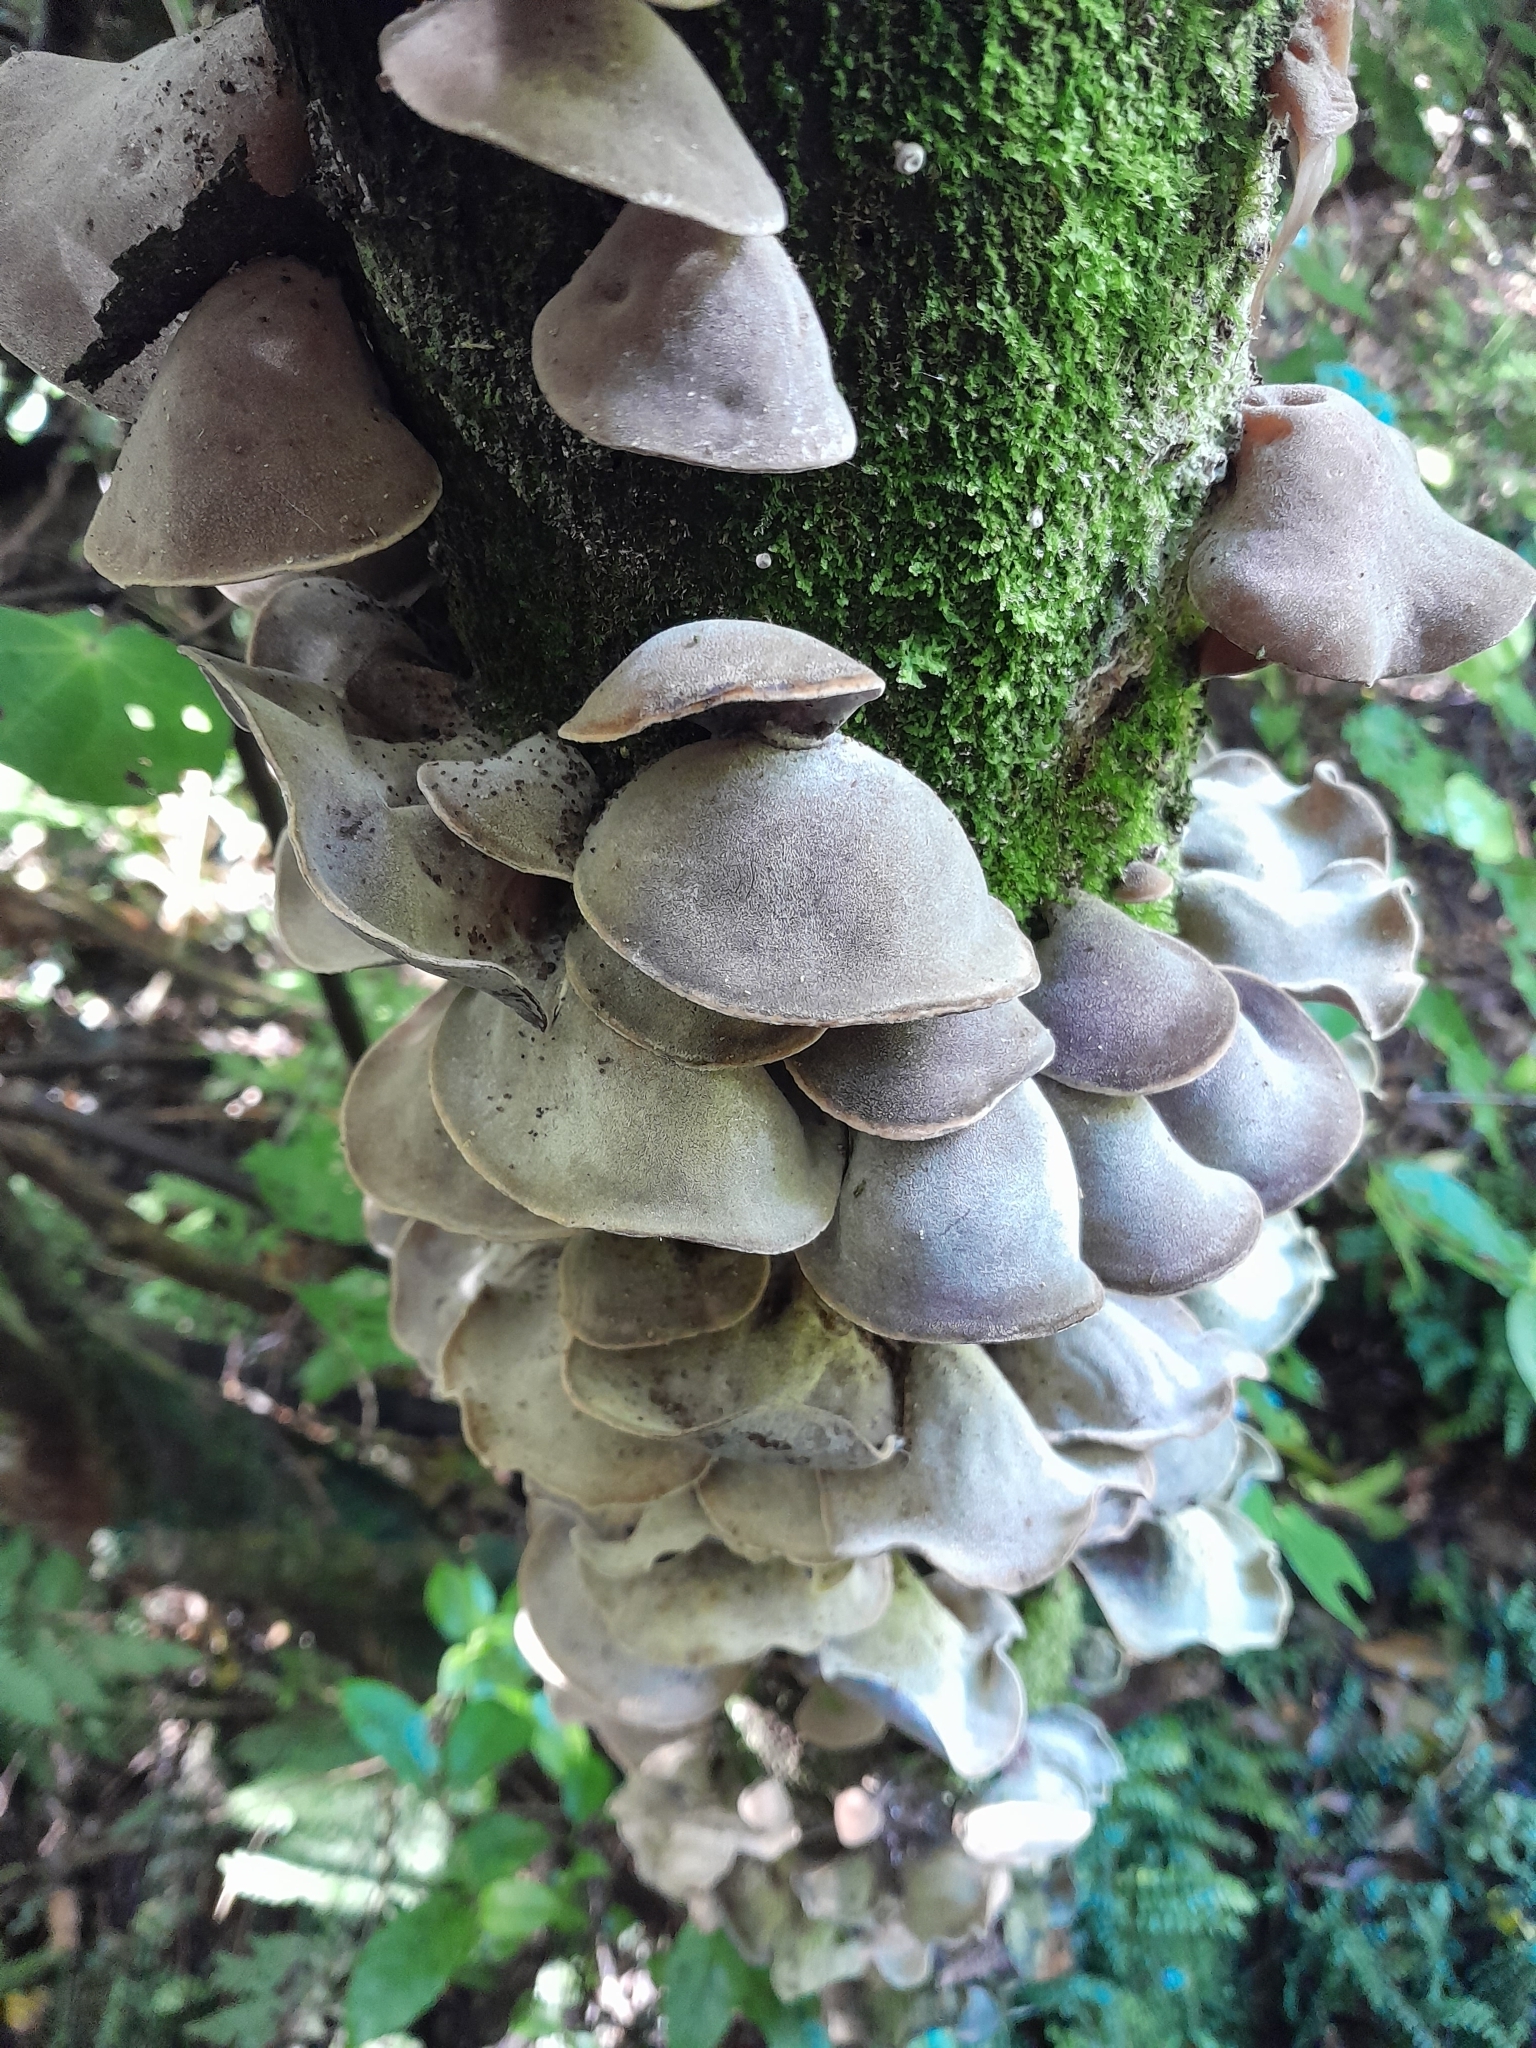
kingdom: Fungi
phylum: Basidiomycota
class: Agaricomycetes
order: Auriculariales
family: Auriculariaceae
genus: Auricularia
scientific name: Auricularia cornea
